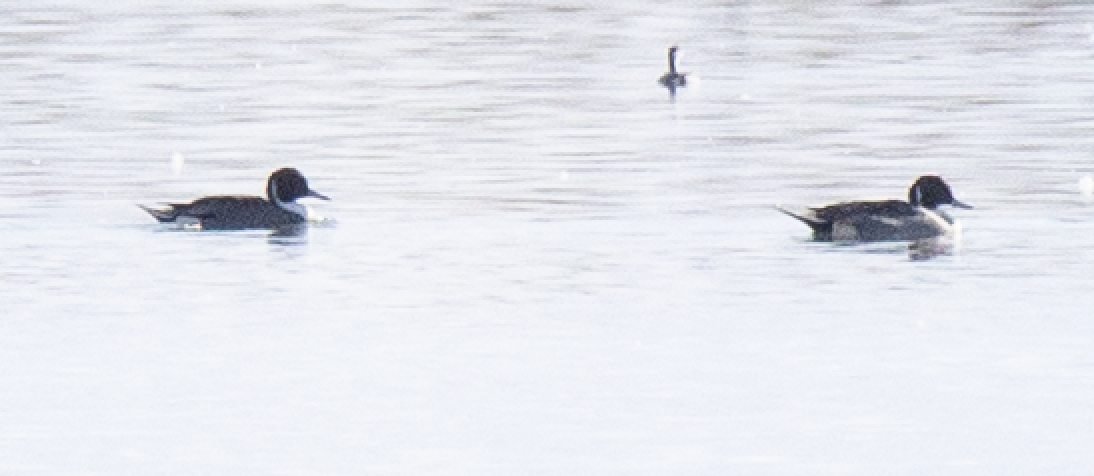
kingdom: Animalia
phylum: Chordata
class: Aves
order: Anseriformes
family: Anatidae
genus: Anas
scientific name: Anas acuta
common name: Northern pintail
